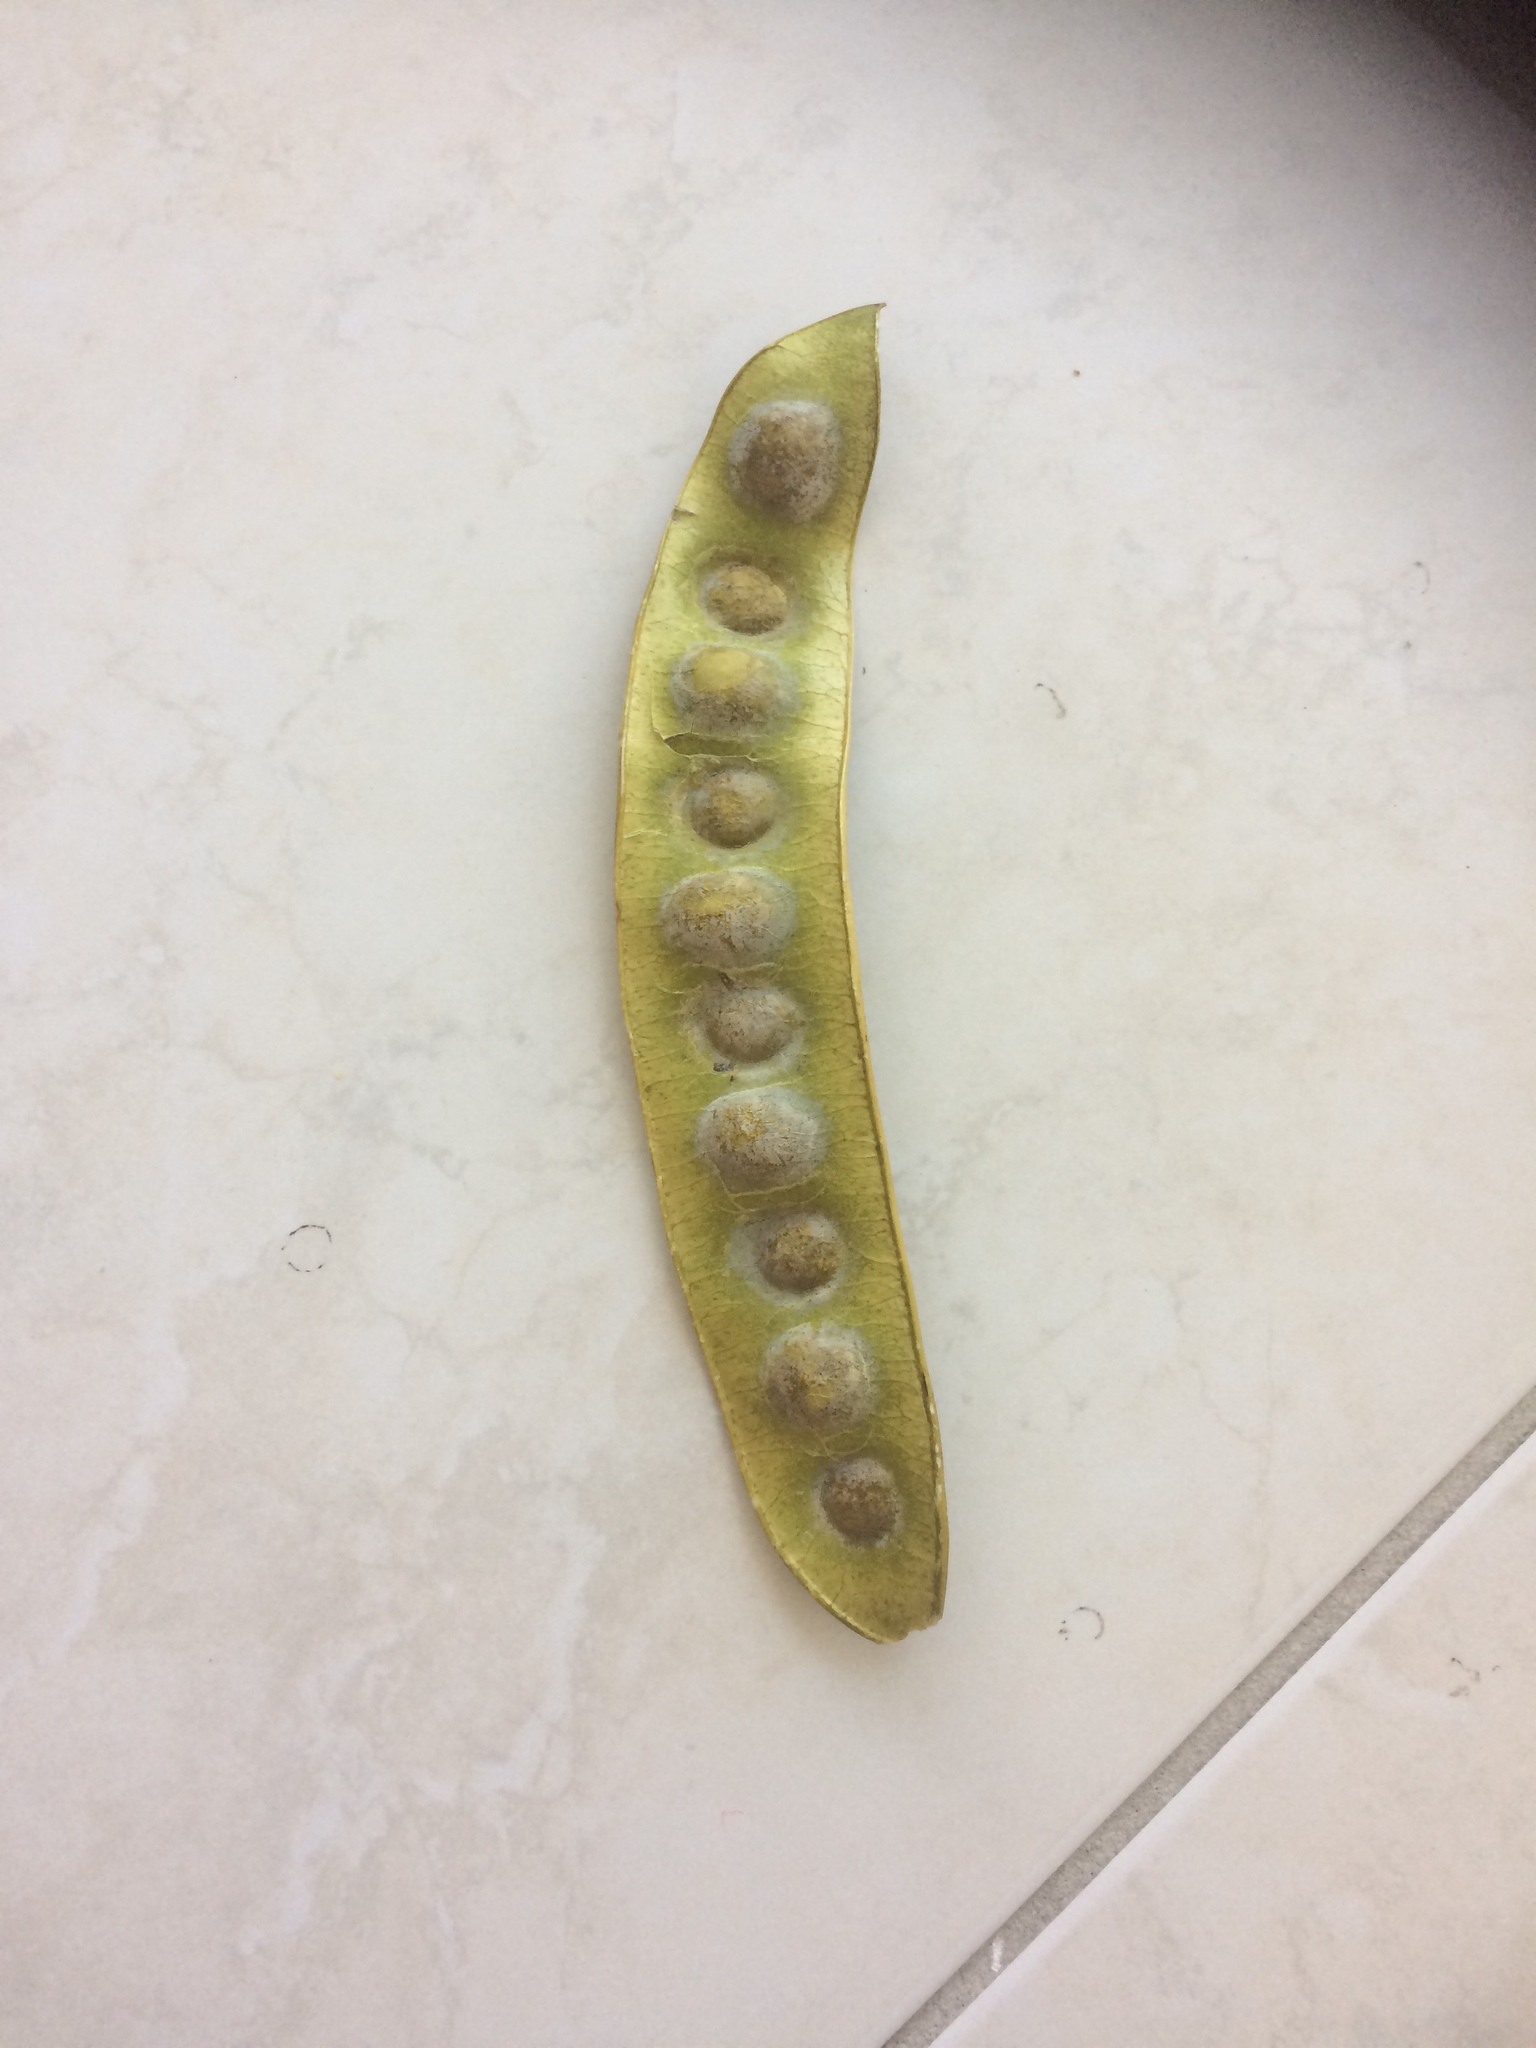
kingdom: Plantae
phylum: Tracheophyta
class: Magnoliopsida
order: Fabales
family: Fabaceae
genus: Albizia
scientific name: Albizia lebbeck
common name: Woman's tongue
